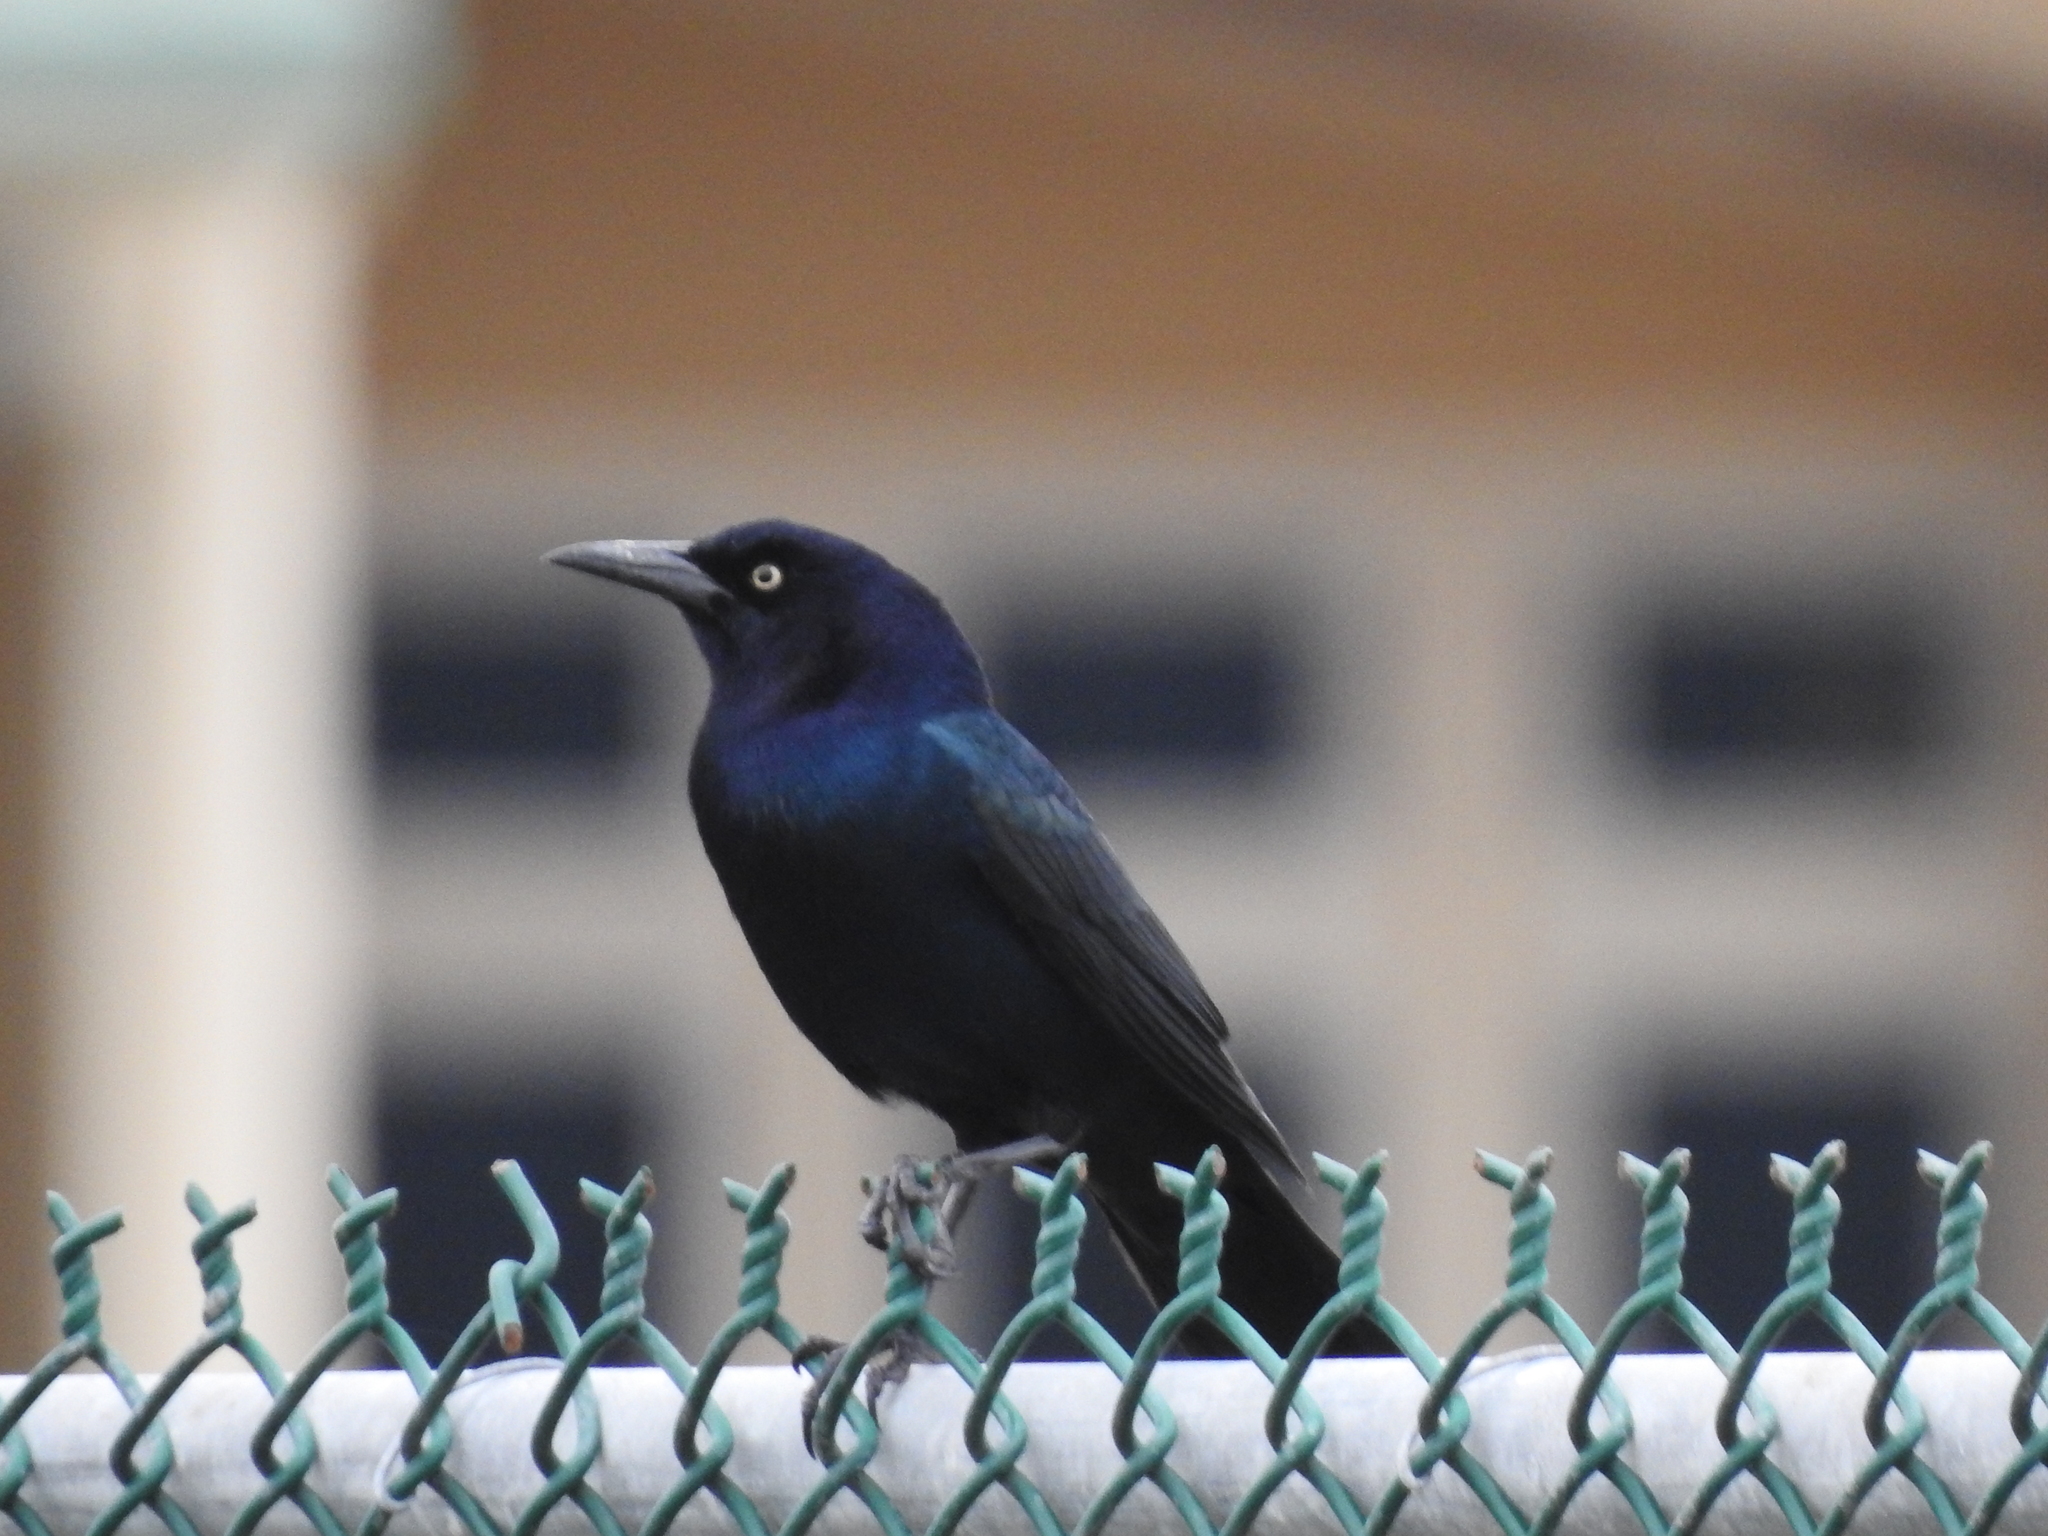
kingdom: Animalia
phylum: Chordata
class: Aves
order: Passeriformes
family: Icteridae
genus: Quiscalus
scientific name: Quiscalus major
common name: Boat-tailed grackle
